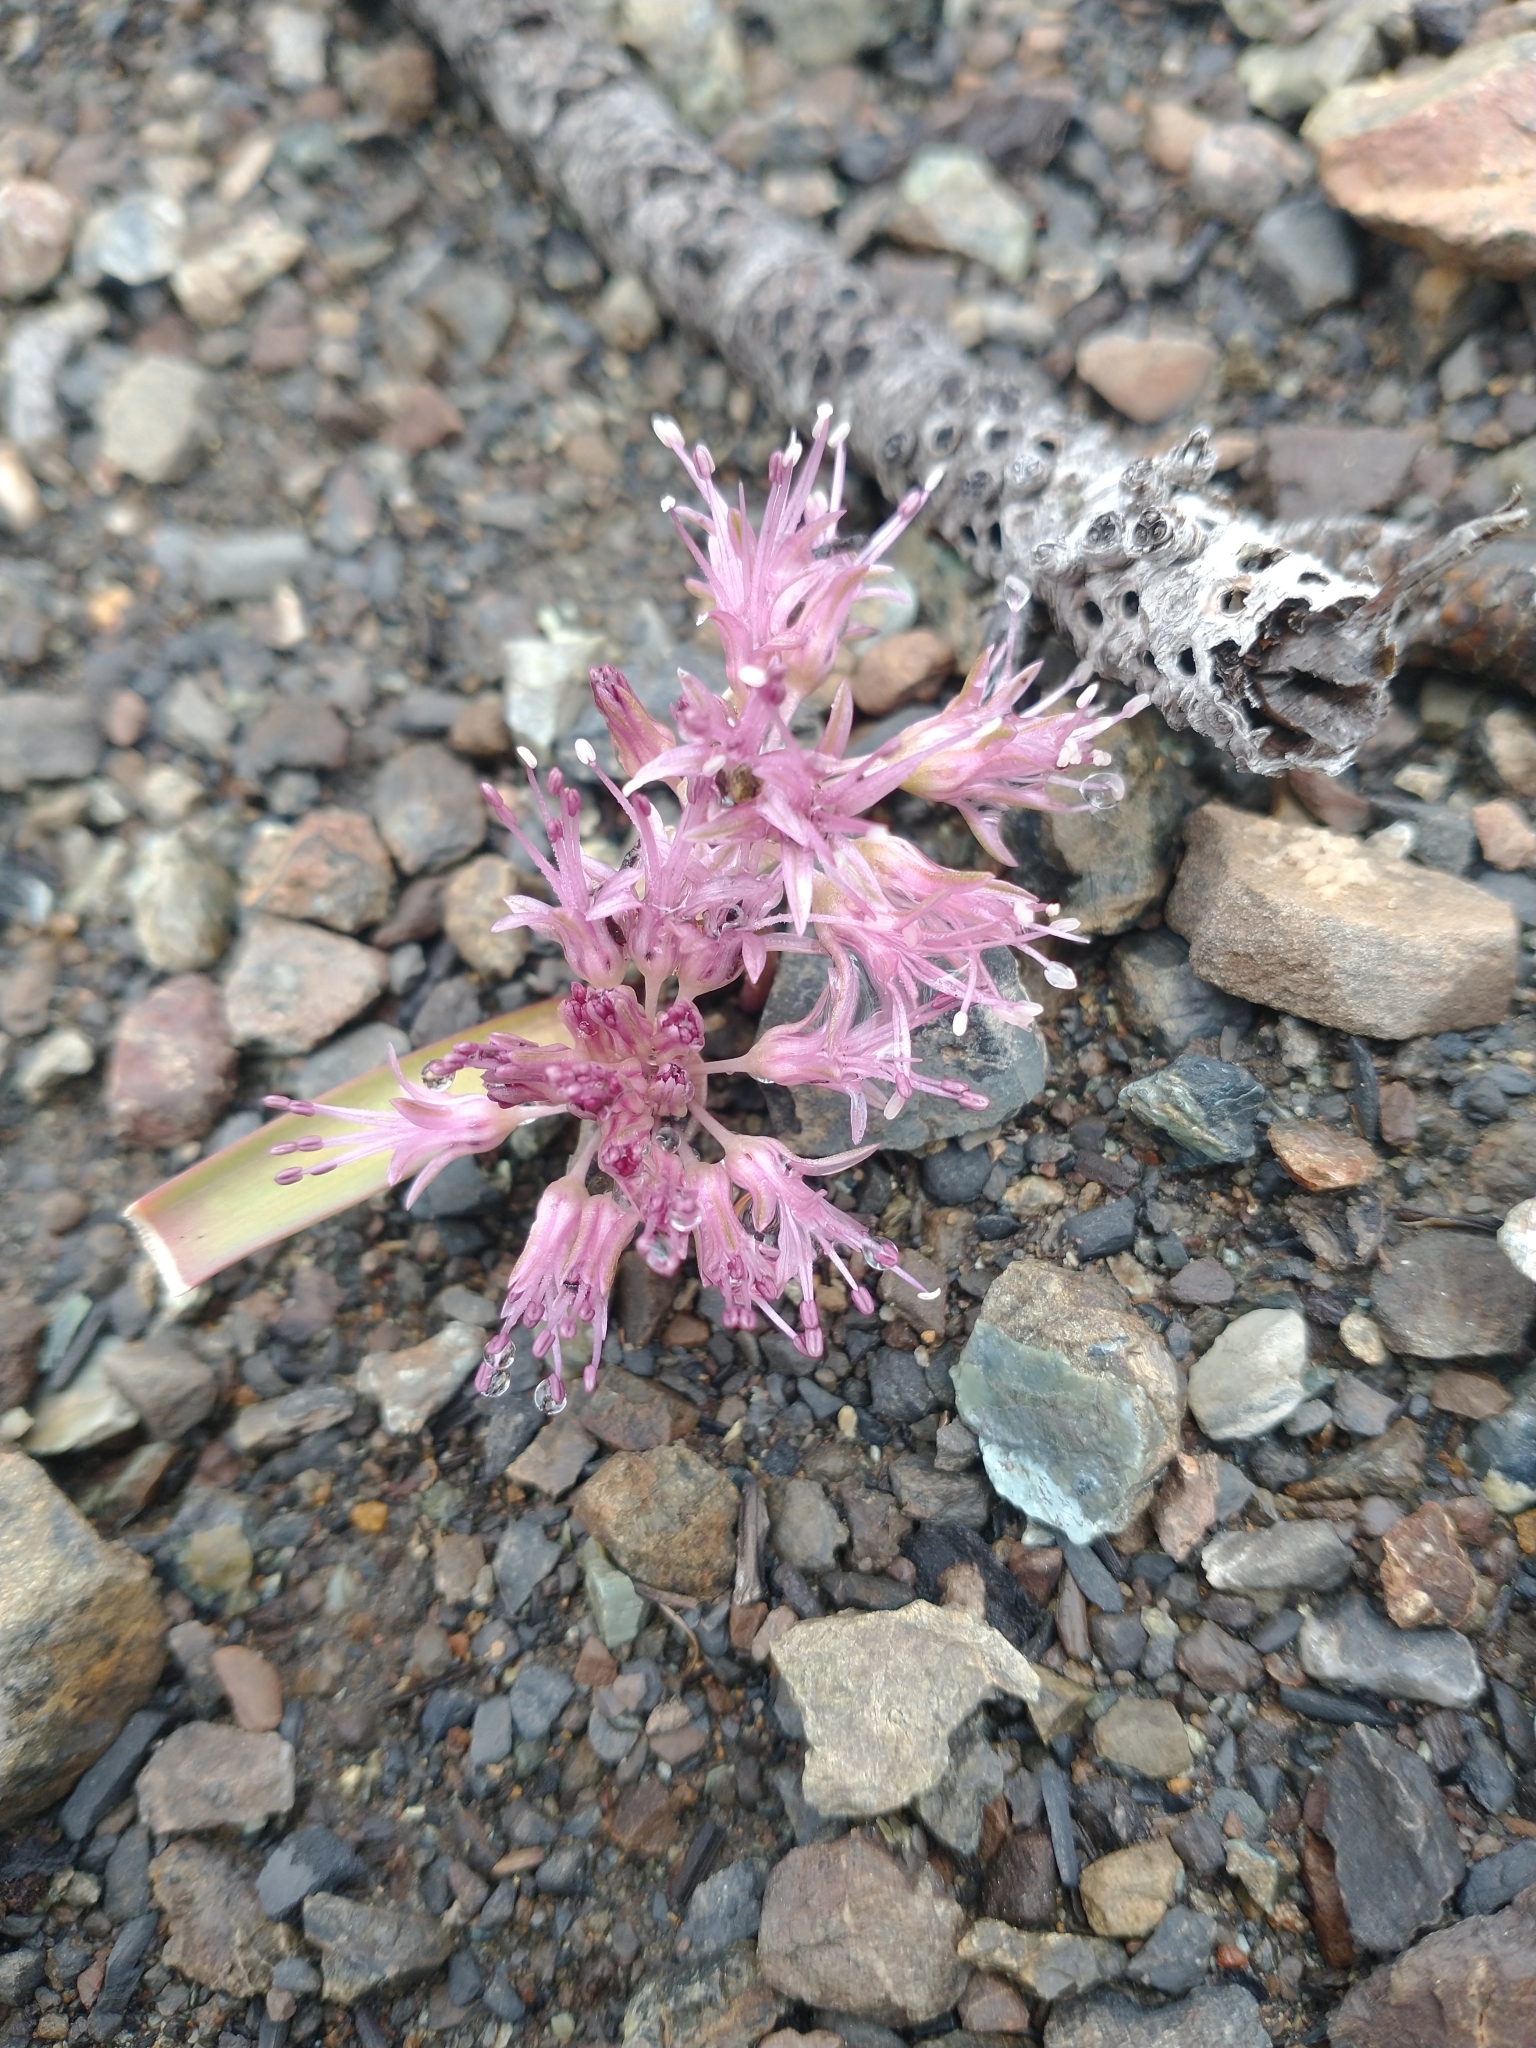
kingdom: Plantae
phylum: Tracheophyta
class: Liliopsida
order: Asparagales
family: Amaryllidaceae
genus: Allium
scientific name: Allium hoffmanii
